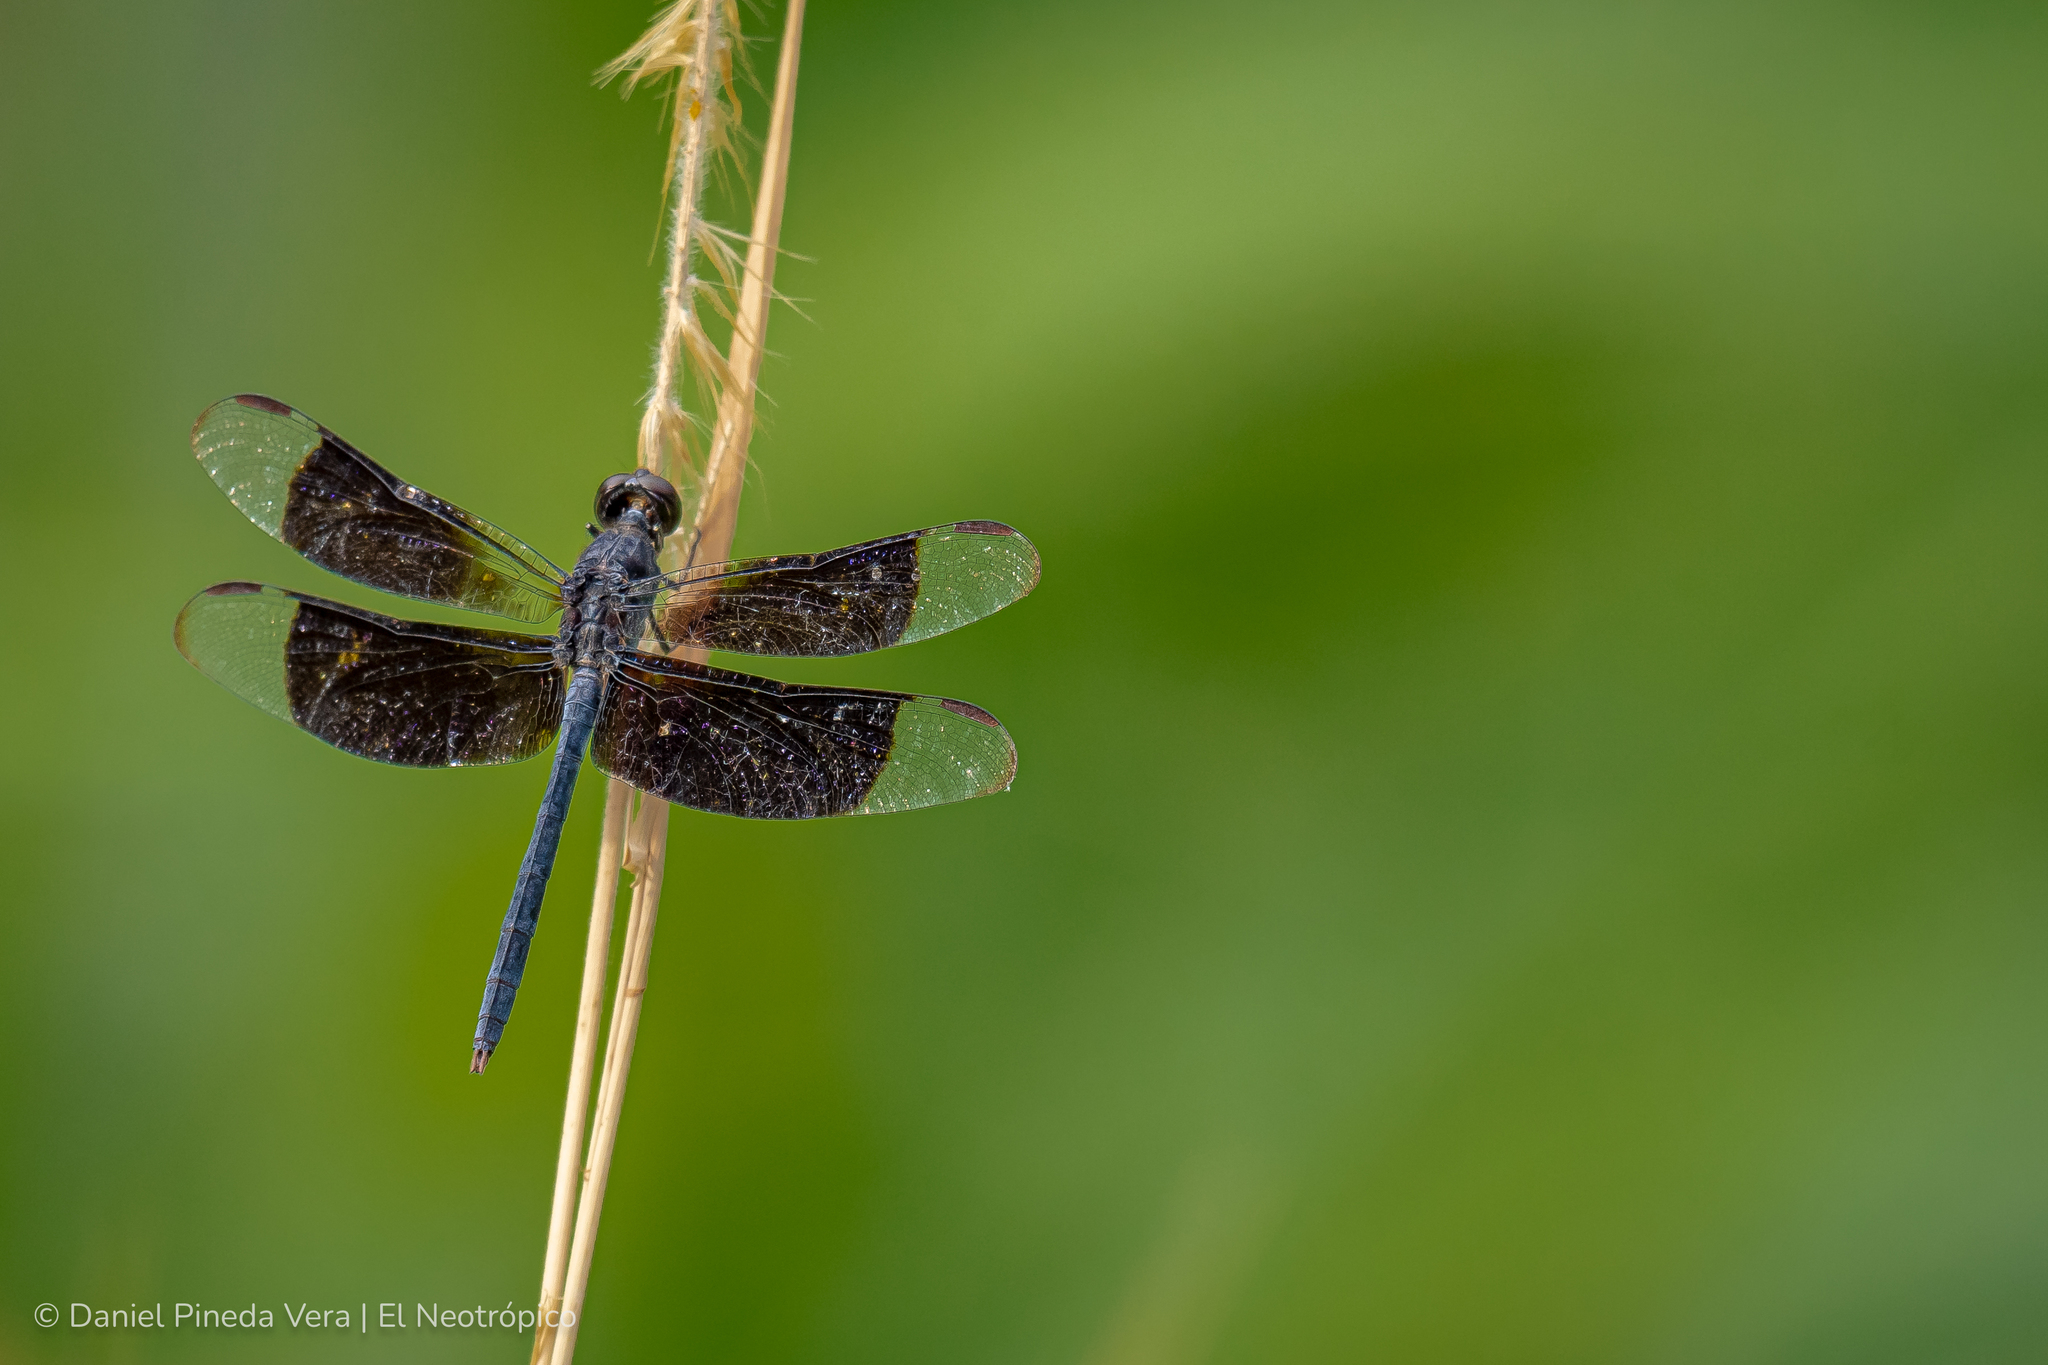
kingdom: Animalia
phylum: Arthropoda
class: Insecta
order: Odonata
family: Libellulidae
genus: Erythrodiplax
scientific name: Erythrodiplax funerea
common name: Black-winged dragonlet
